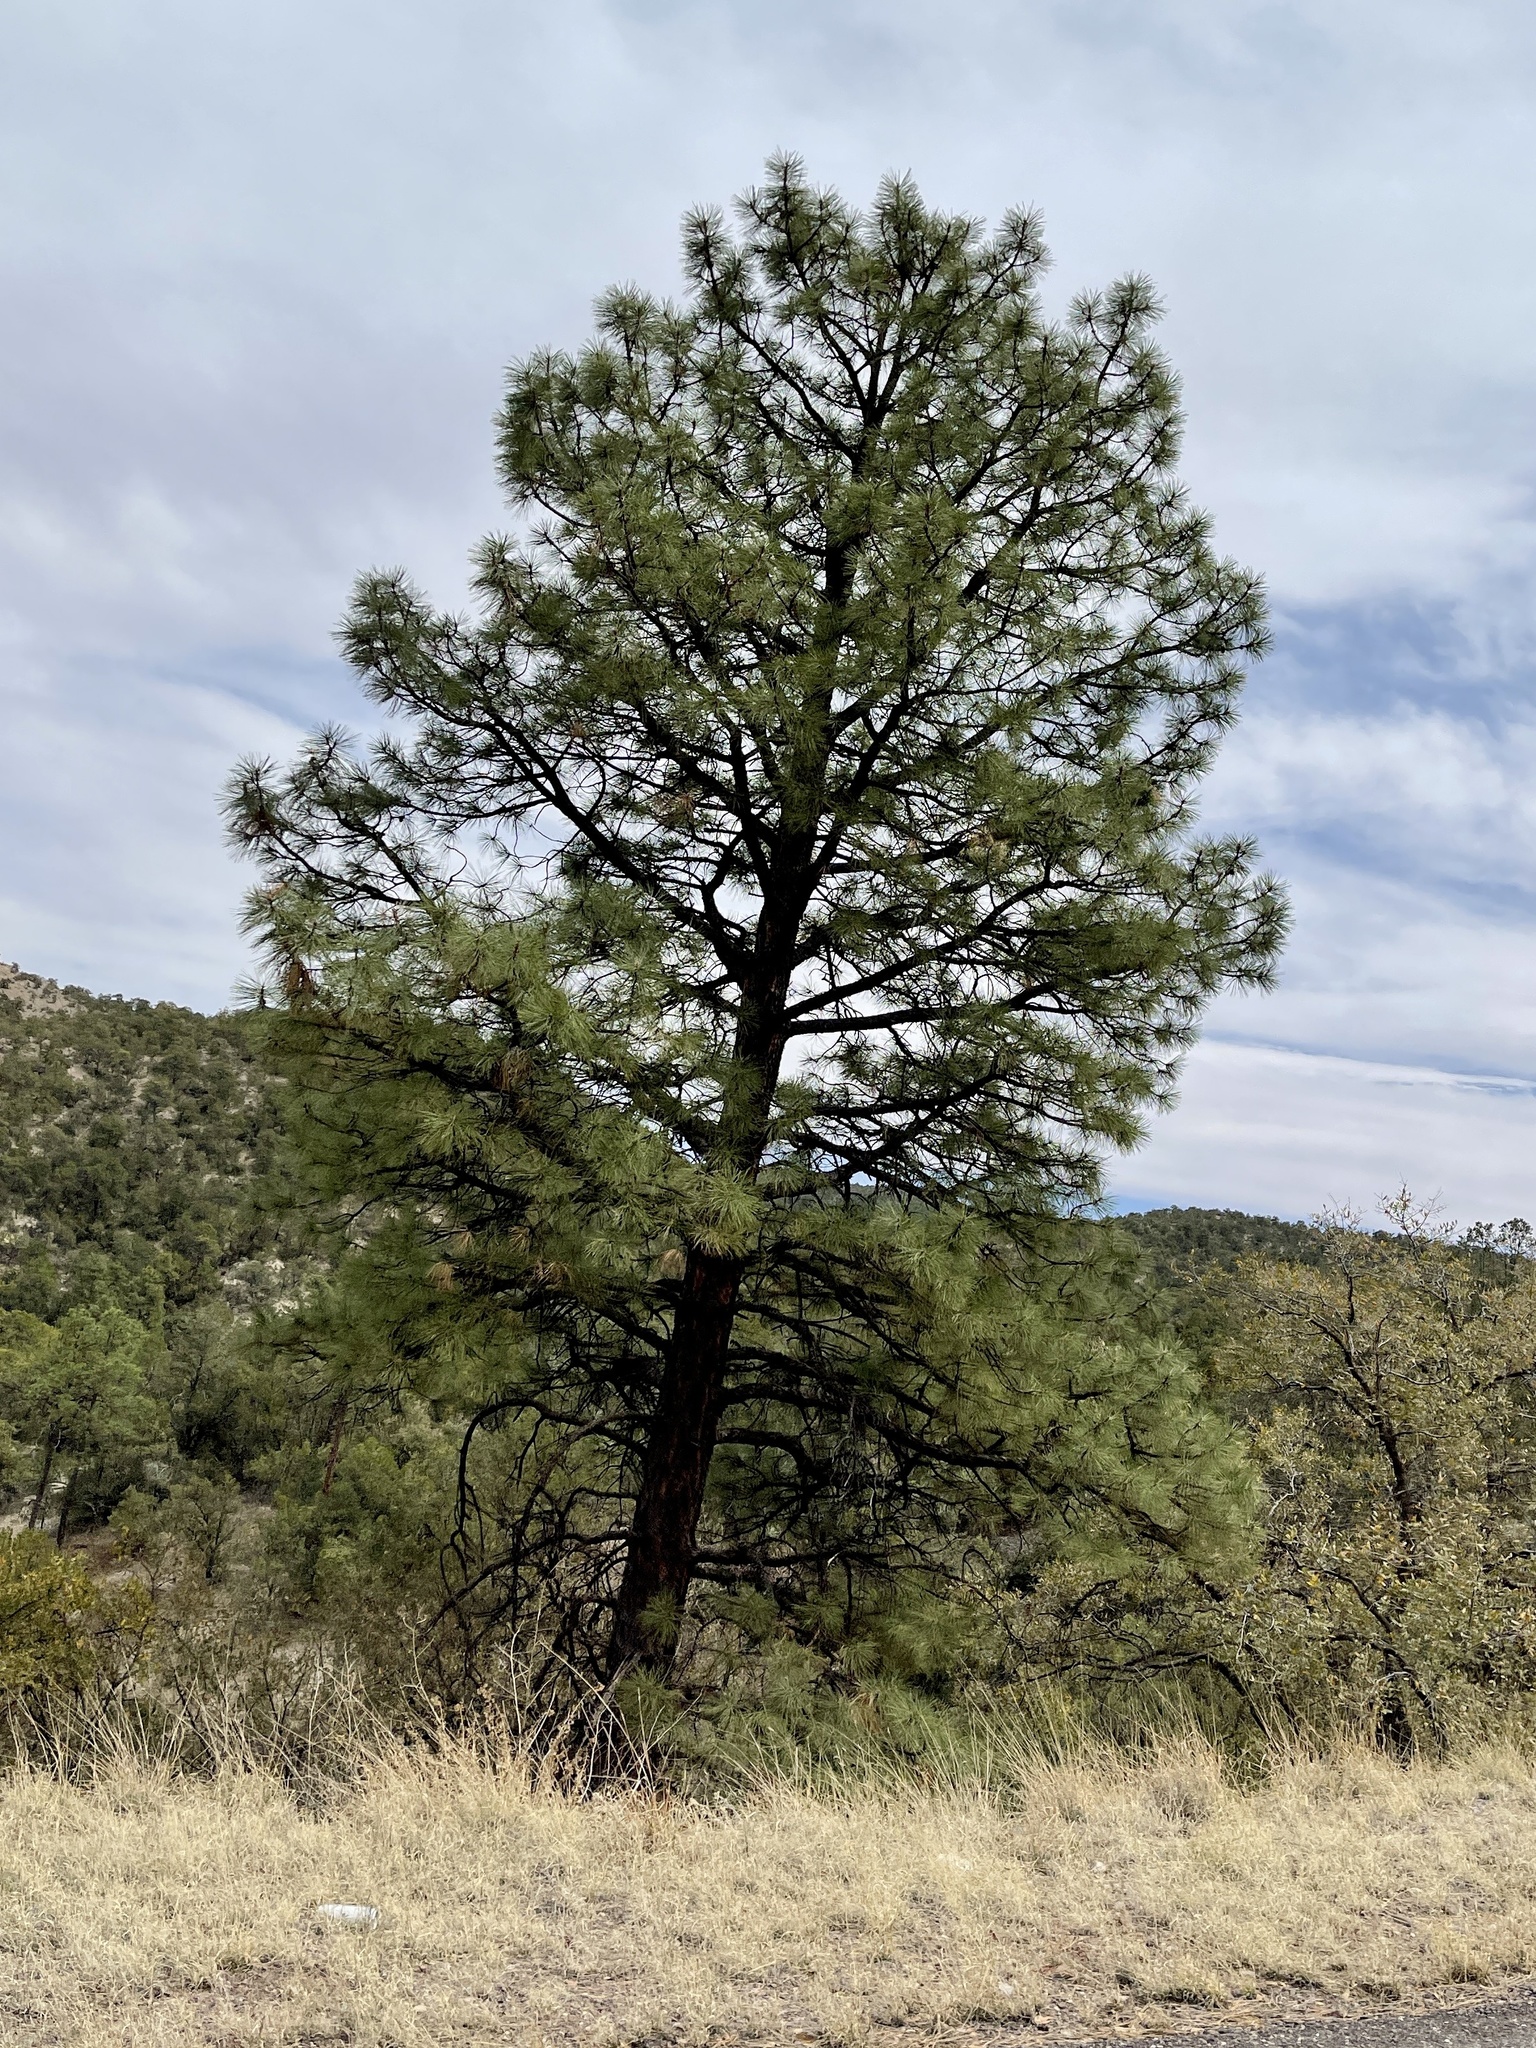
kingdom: Plantae
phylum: Tracheophyta
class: Pinopsida
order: Pinales
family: Pinaceae
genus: Pinus
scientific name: Pinus ponderosa
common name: Western yellow-pine
